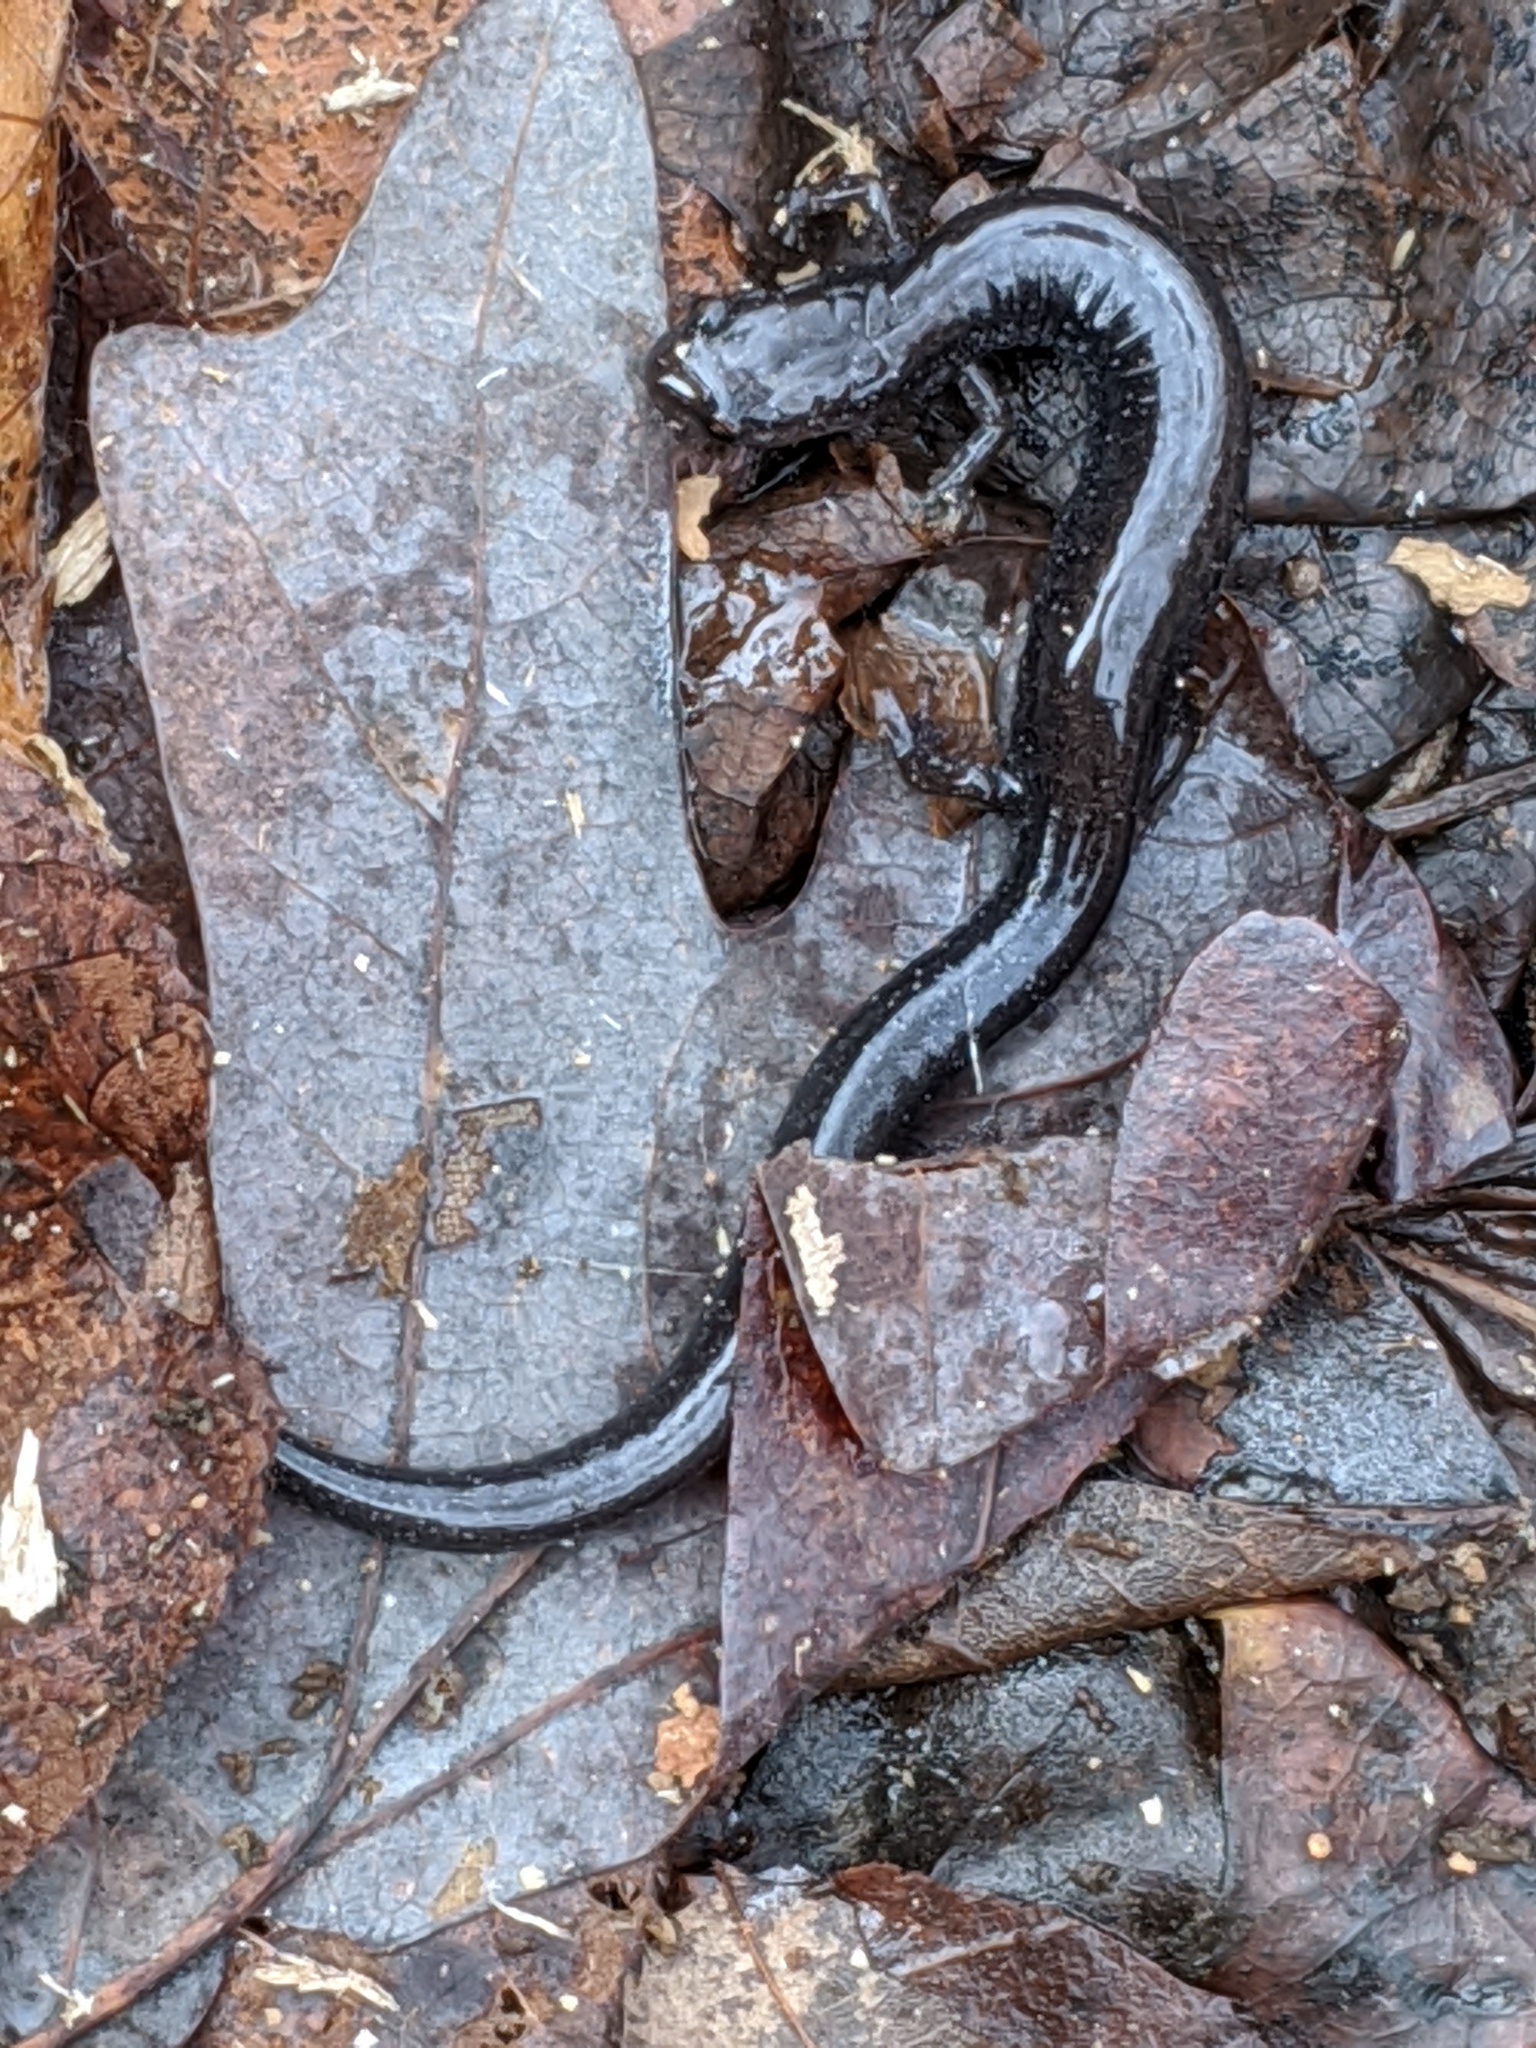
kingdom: Animalia
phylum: Chordata
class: Amphibia
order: Caudata
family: Plethodontidae
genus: Plethodon
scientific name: Plethodon cinereus
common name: Redback salamander
